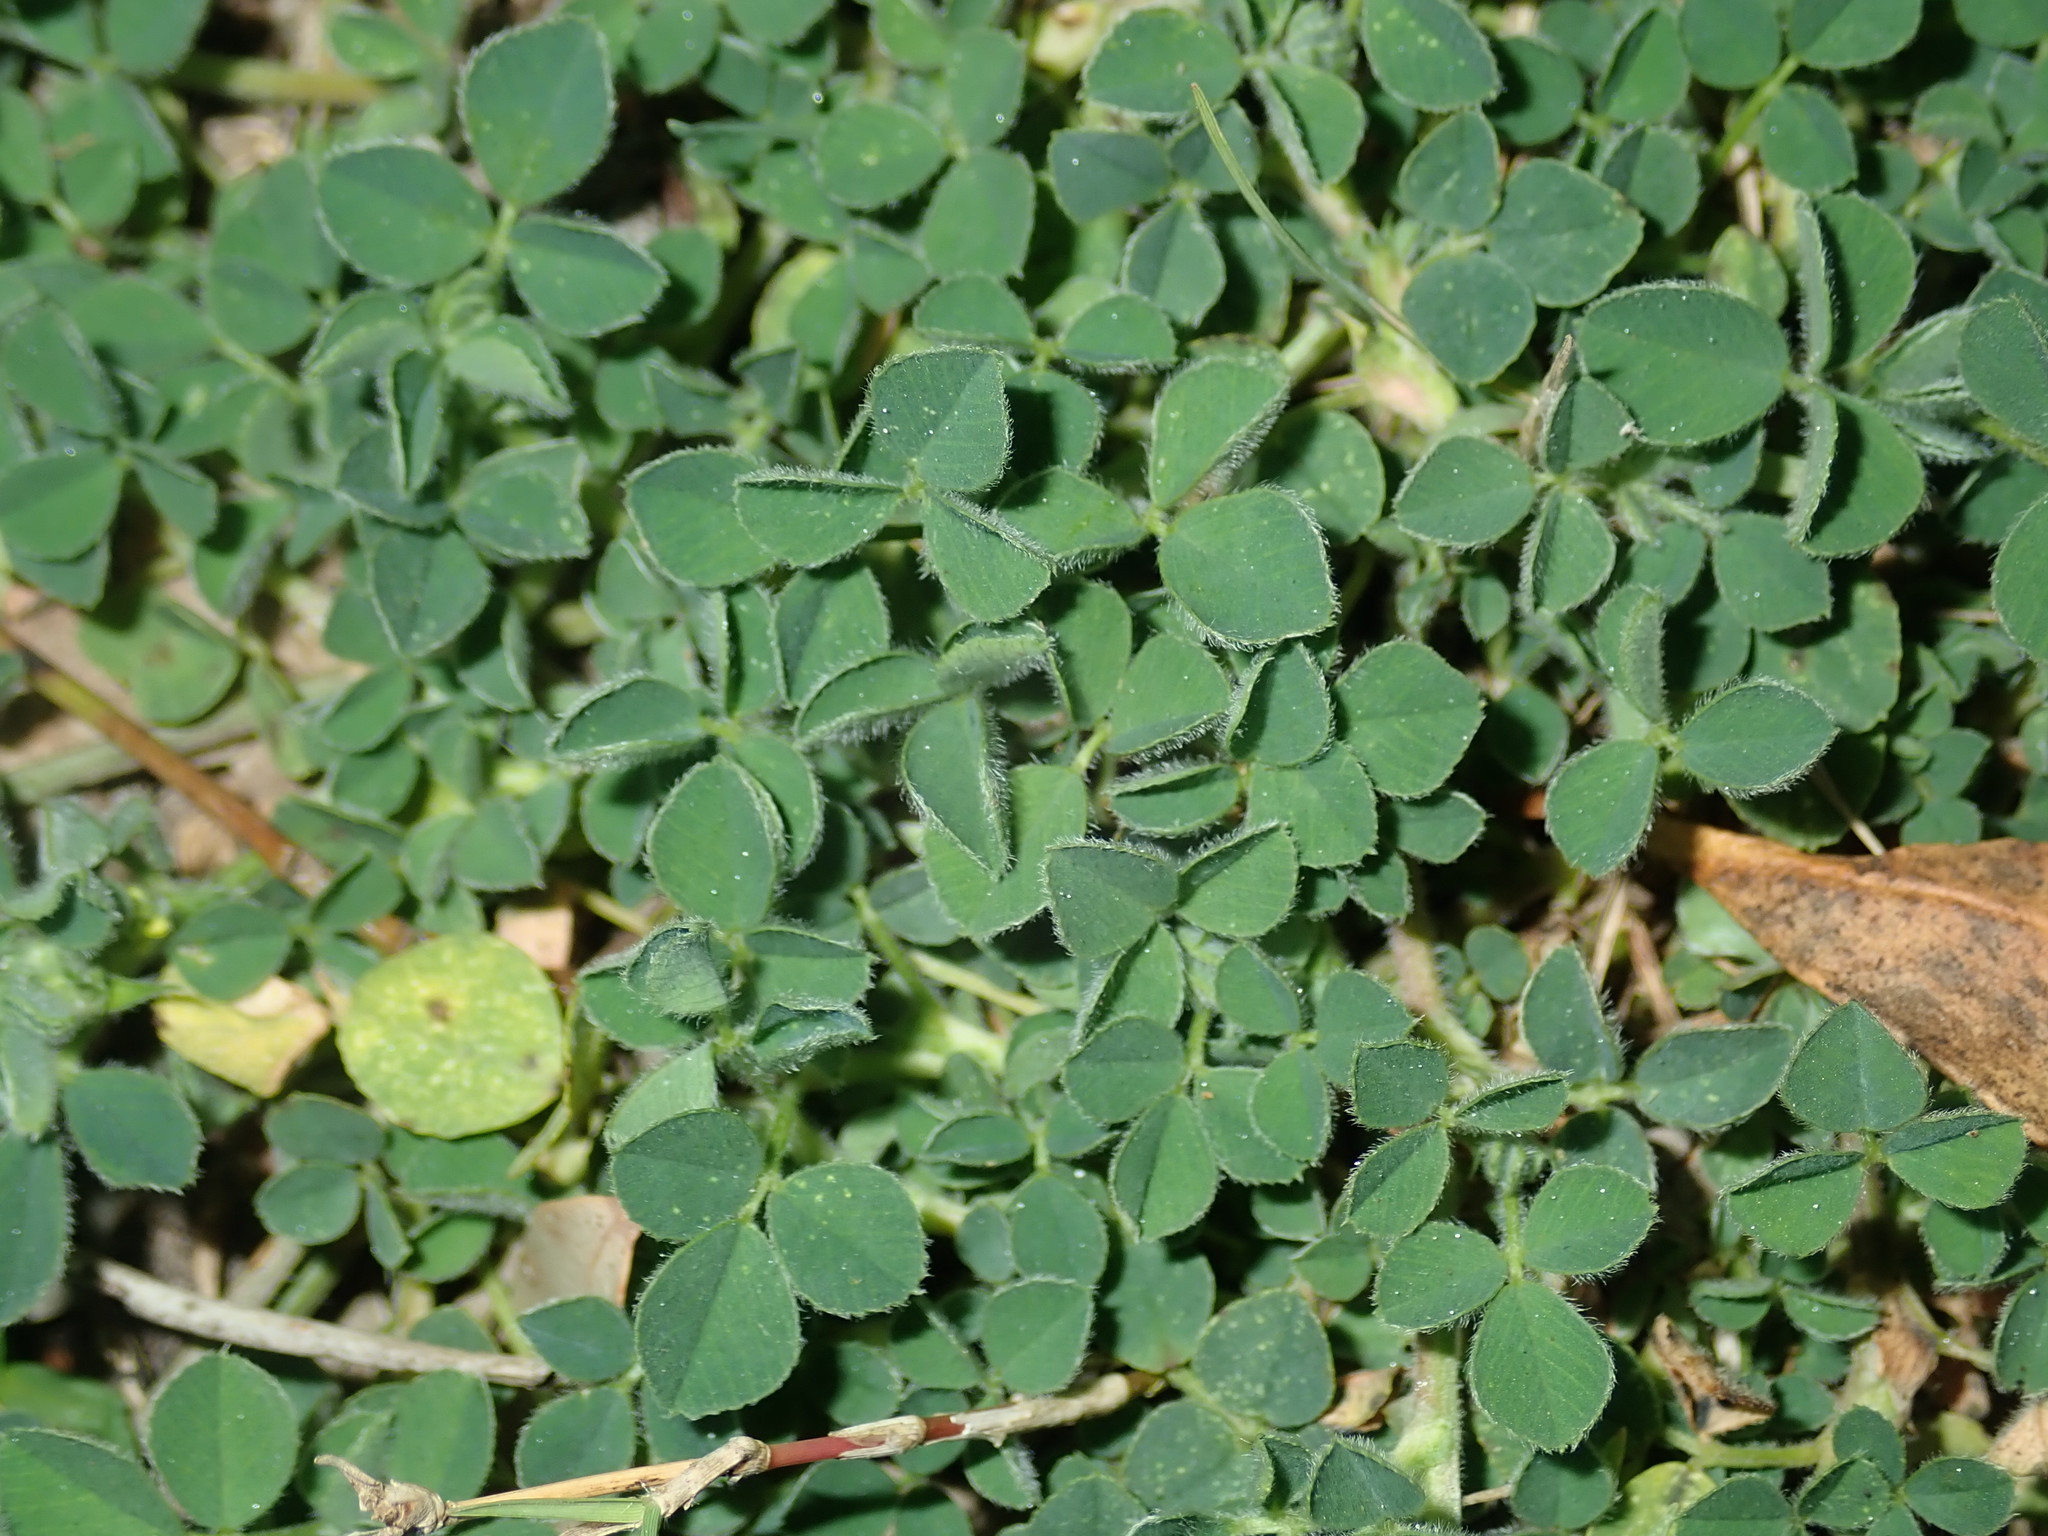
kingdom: Plantae
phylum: Tracheophyta
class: Magnoliopsida
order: Fabales
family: Fabaceae
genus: Medicago
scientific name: Medicago lupulina
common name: Black medick
